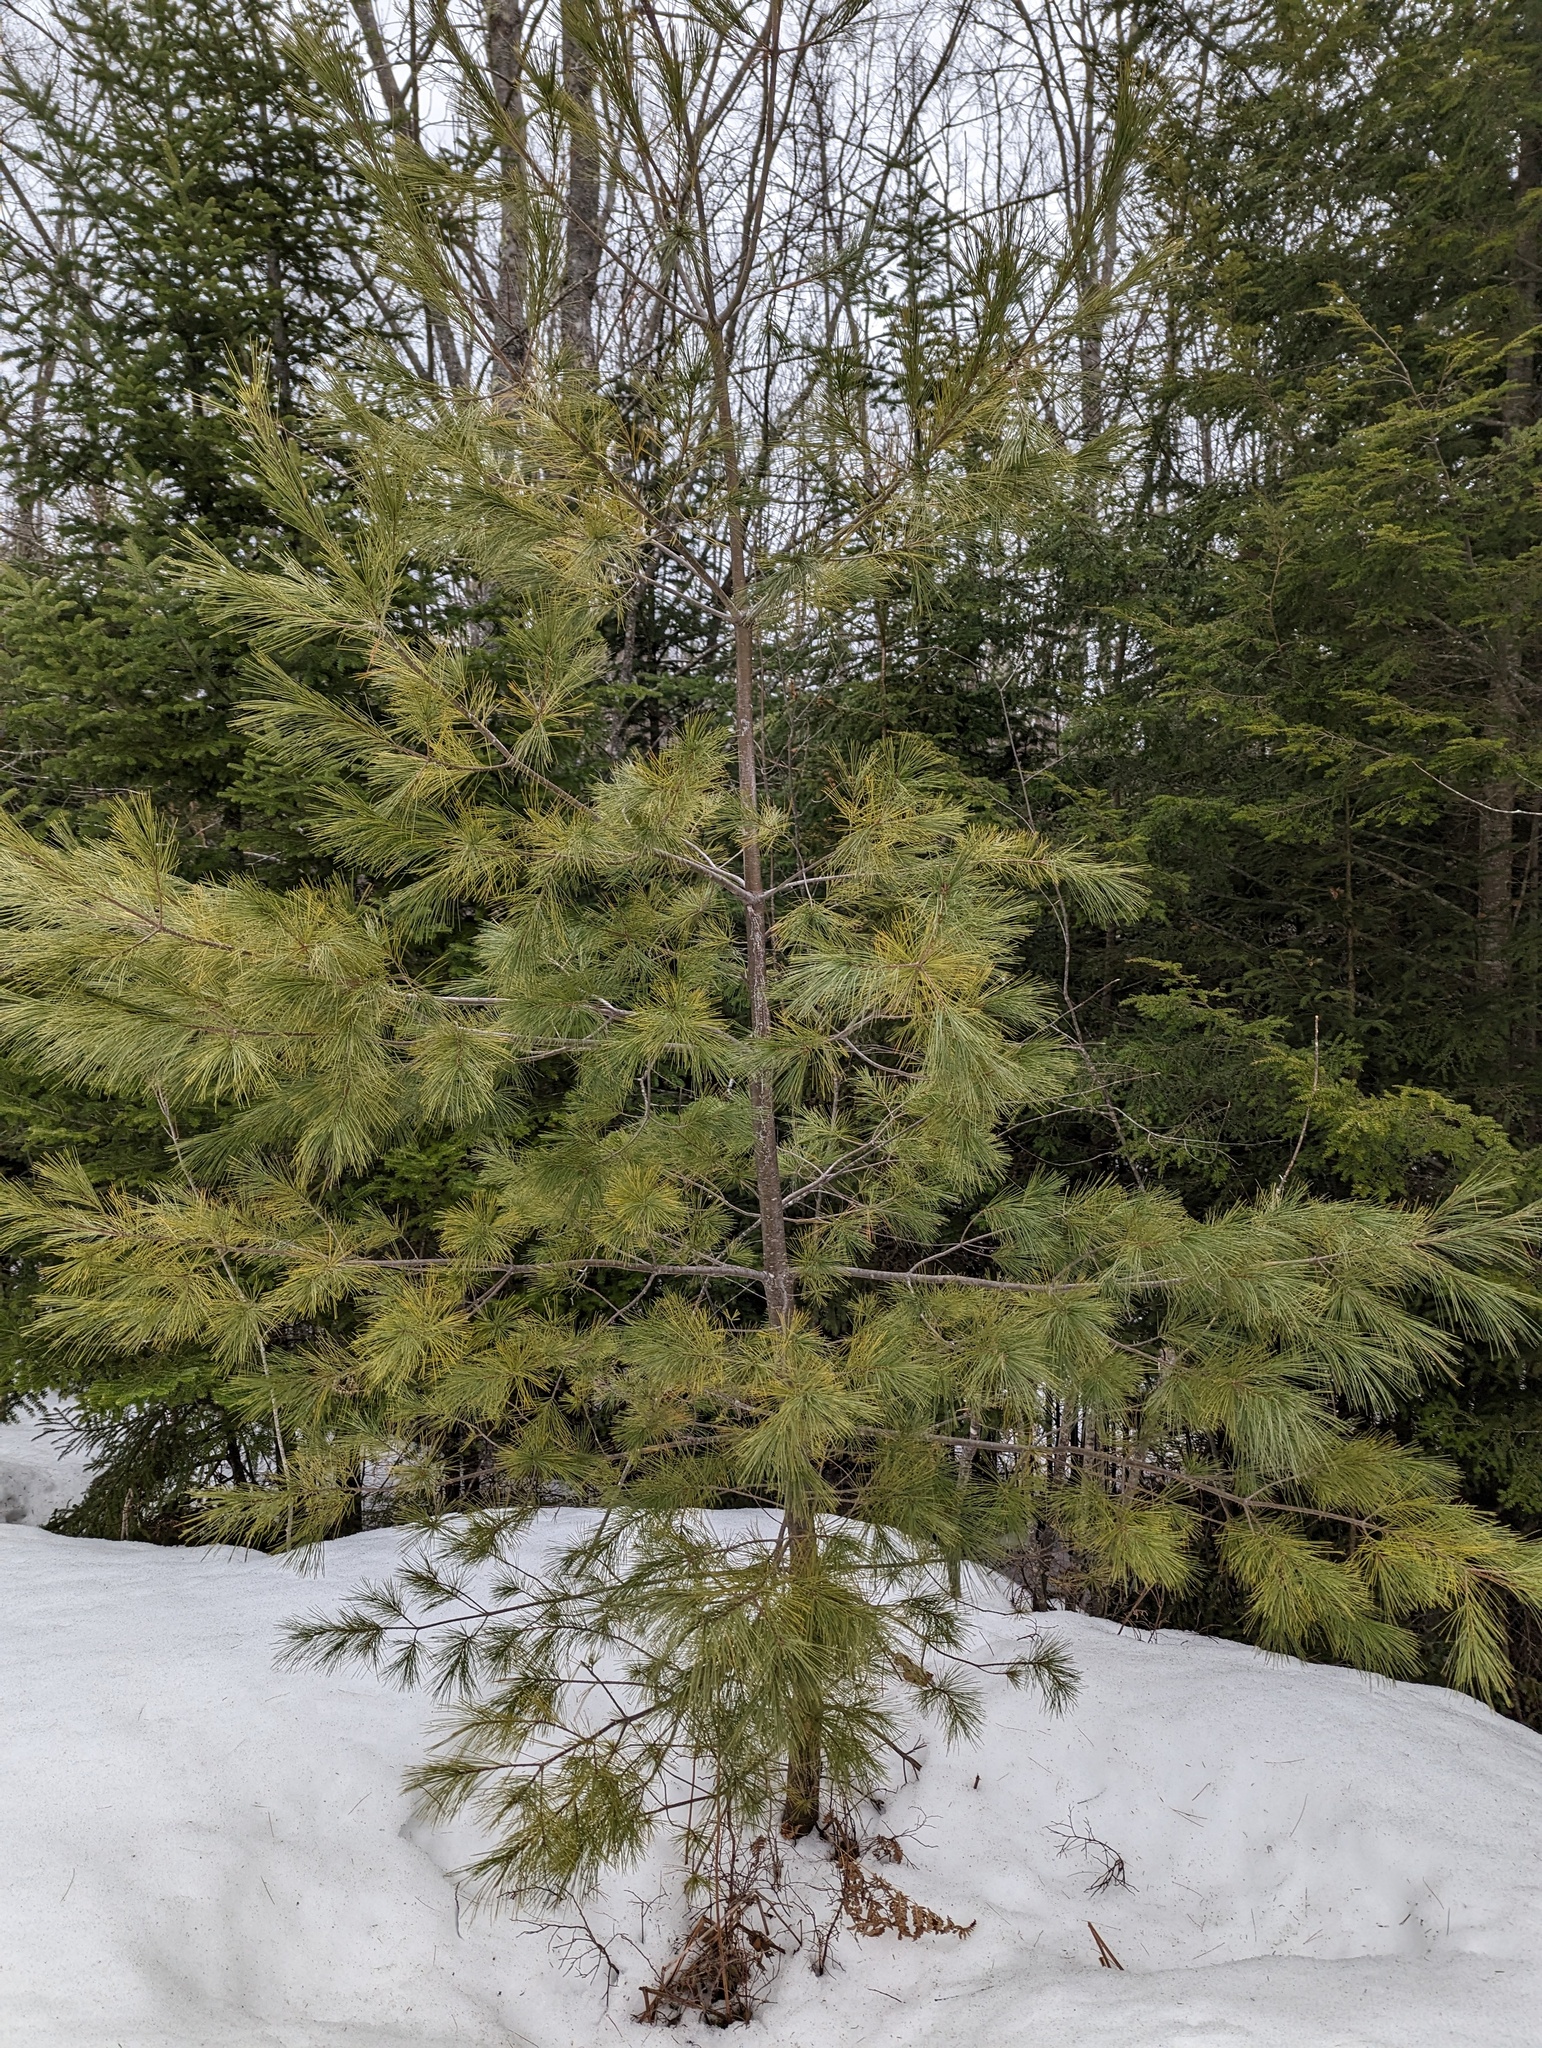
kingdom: Plantae
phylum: Tracheophyta
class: Pinopsida
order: Pinales
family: Pinaceae
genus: Pinus
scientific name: Pinus strobus
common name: Weymouth pine
